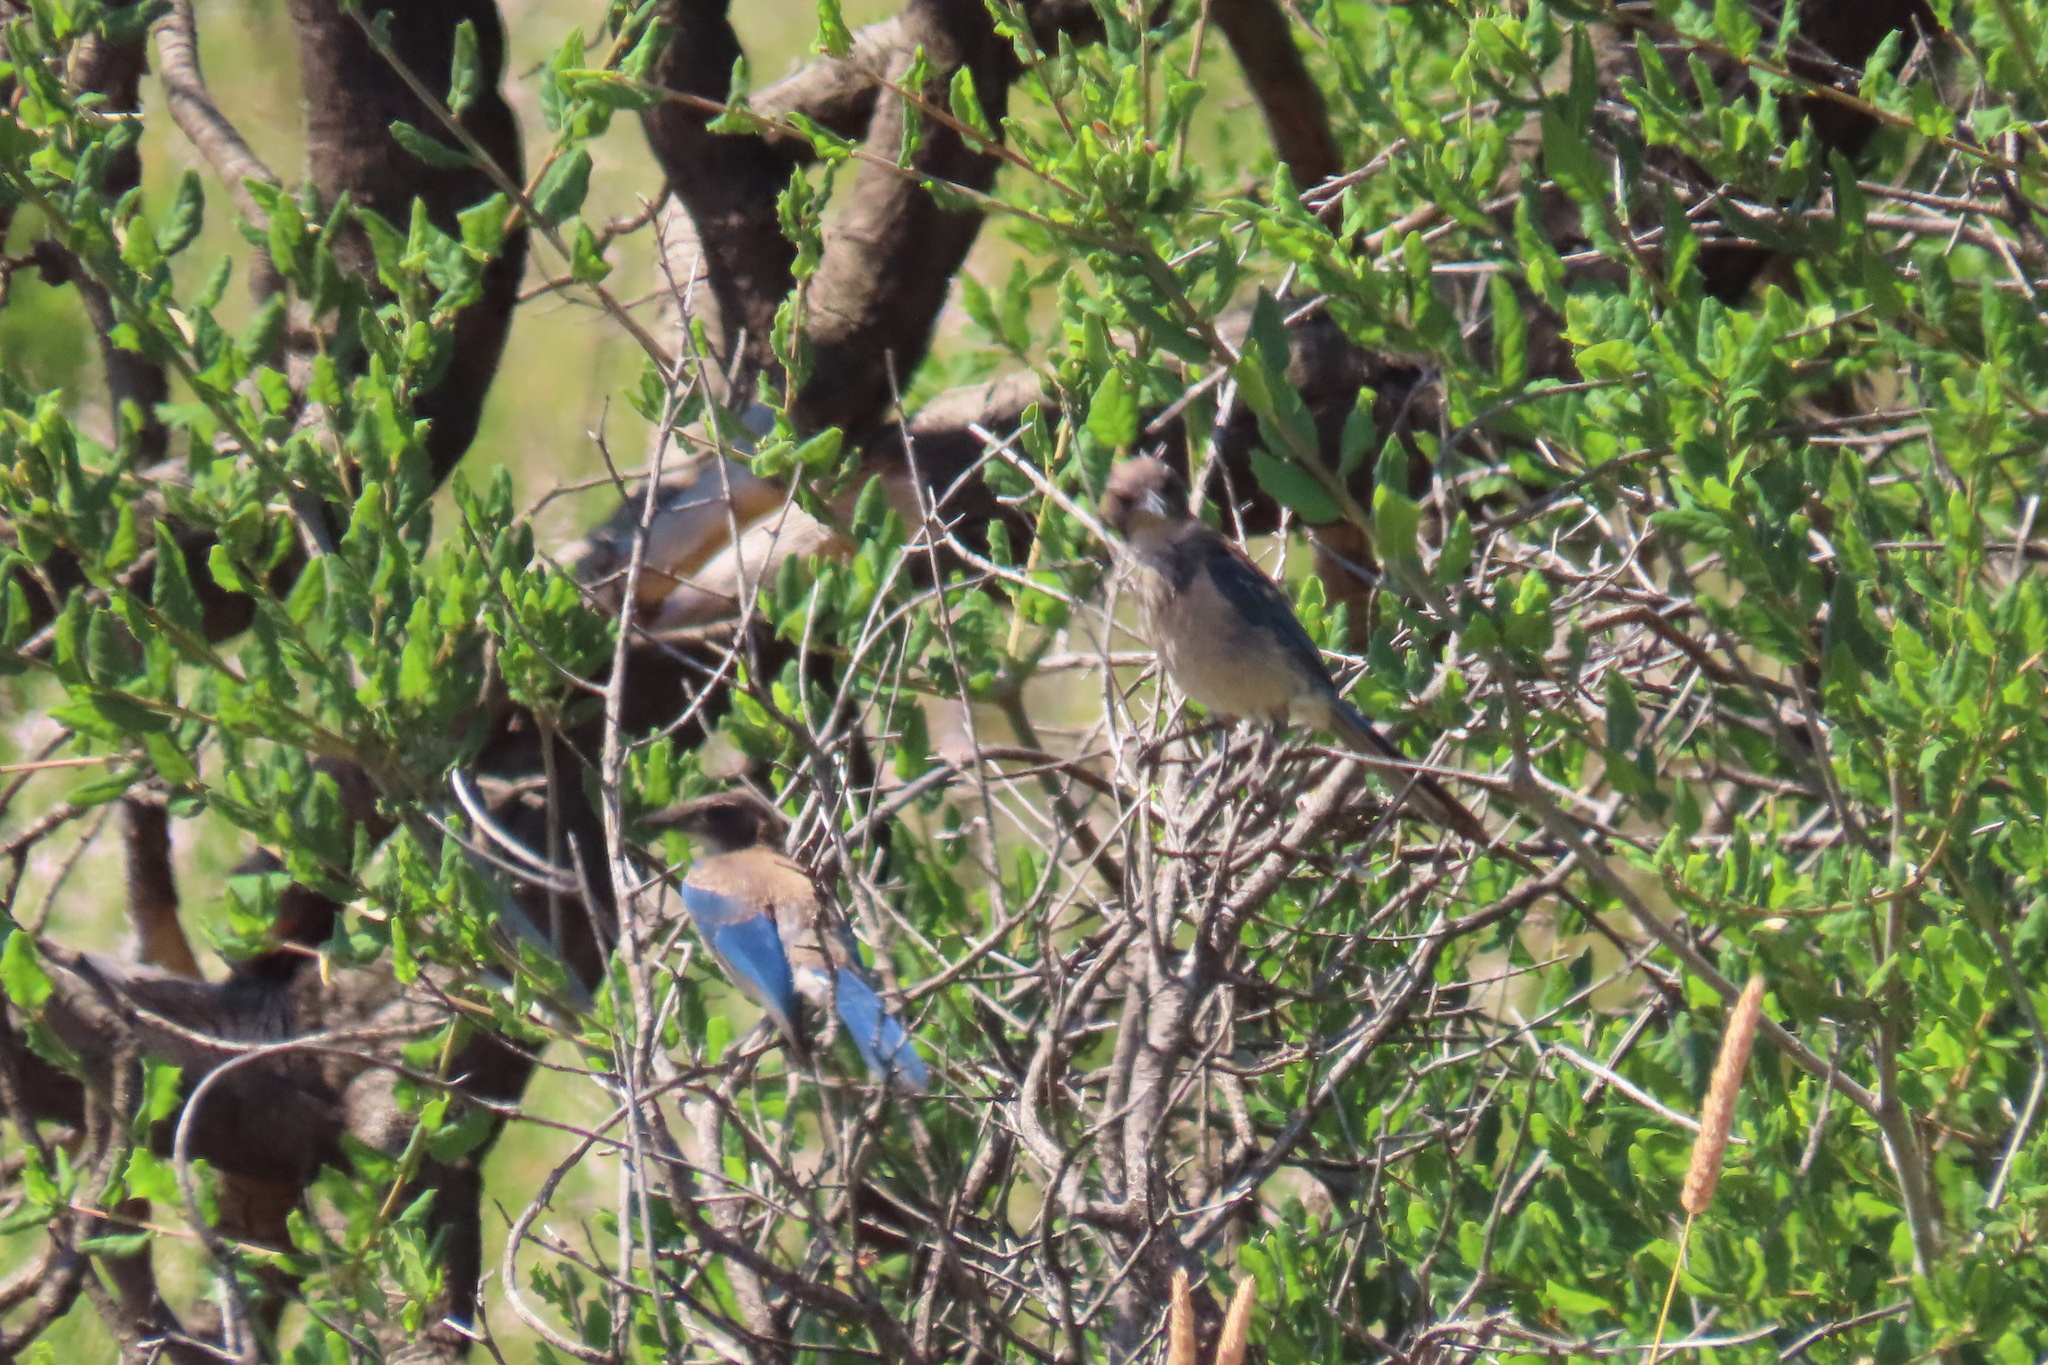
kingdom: Animalia
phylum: Chordata
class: Aves
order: Passeriformes
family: Corvidae
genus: Aphelocoma
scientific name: Aphelocoma californica
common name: California scrub-jay
